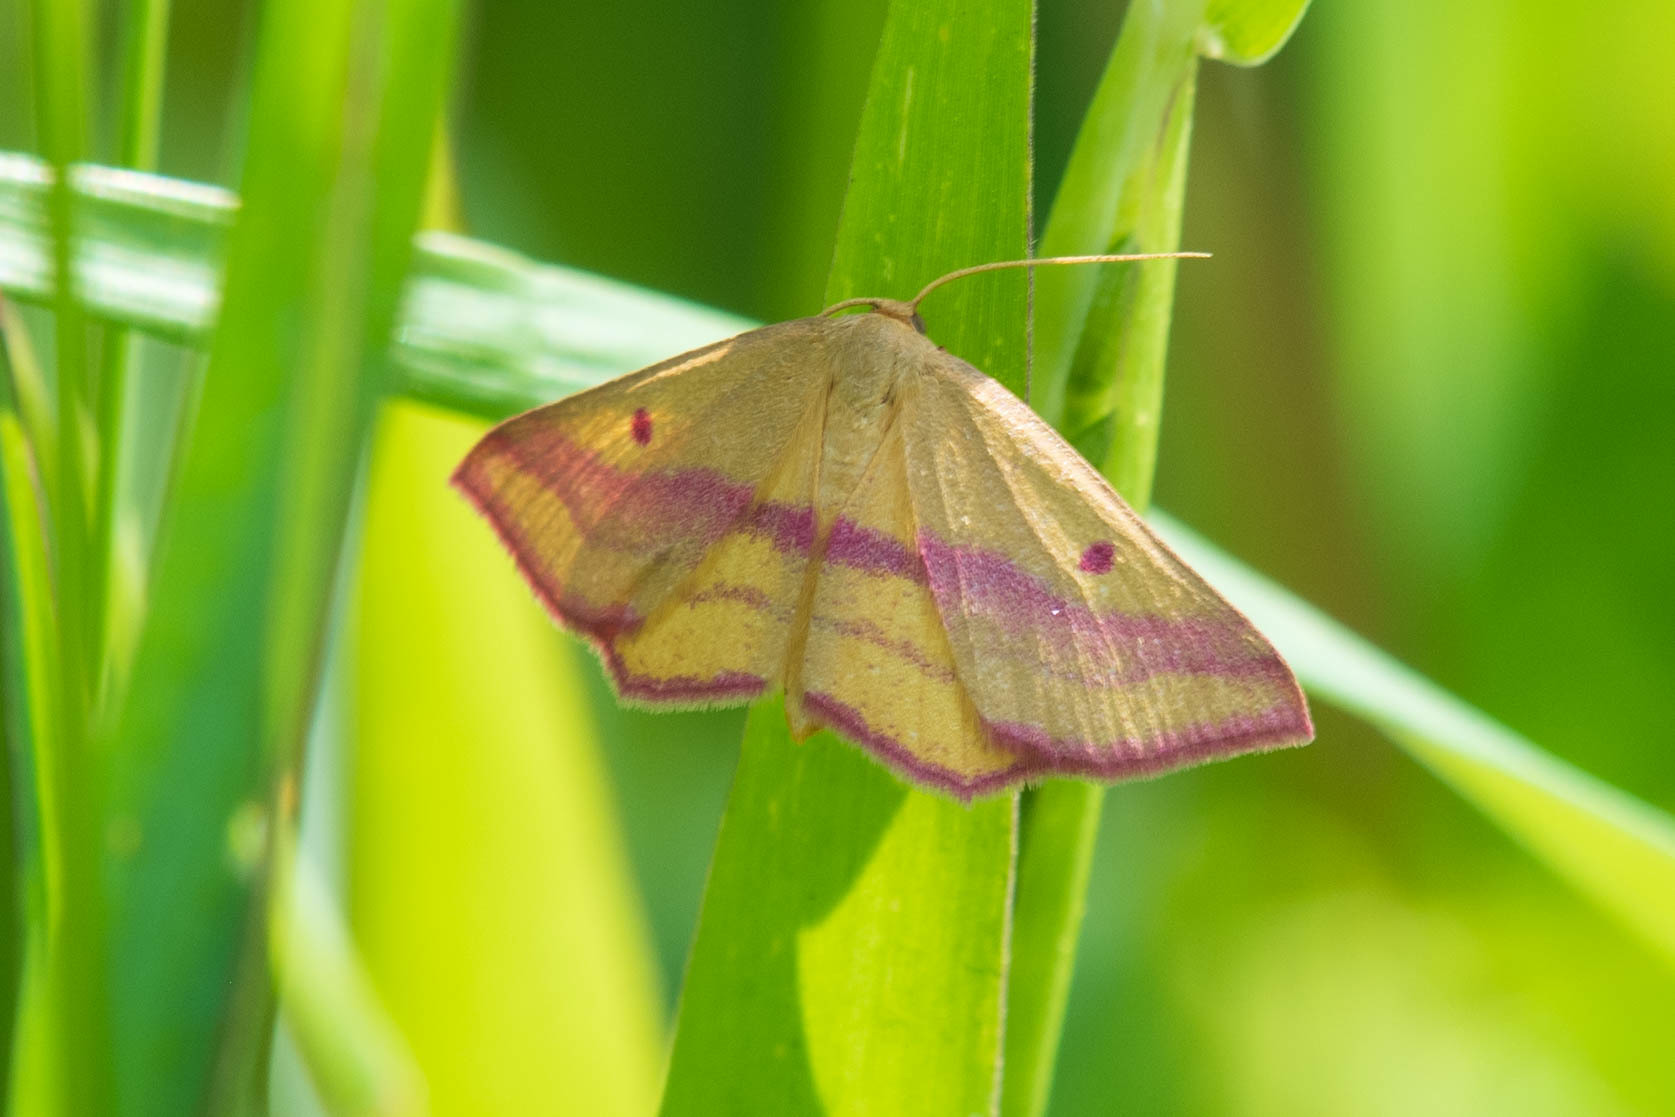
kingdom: Animalia
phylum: Arthropoda
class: Insecta
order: Lepidoptera
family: Geometridae
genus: Haematopis
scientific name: Haematopis grataria
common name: Chickweed geometer
